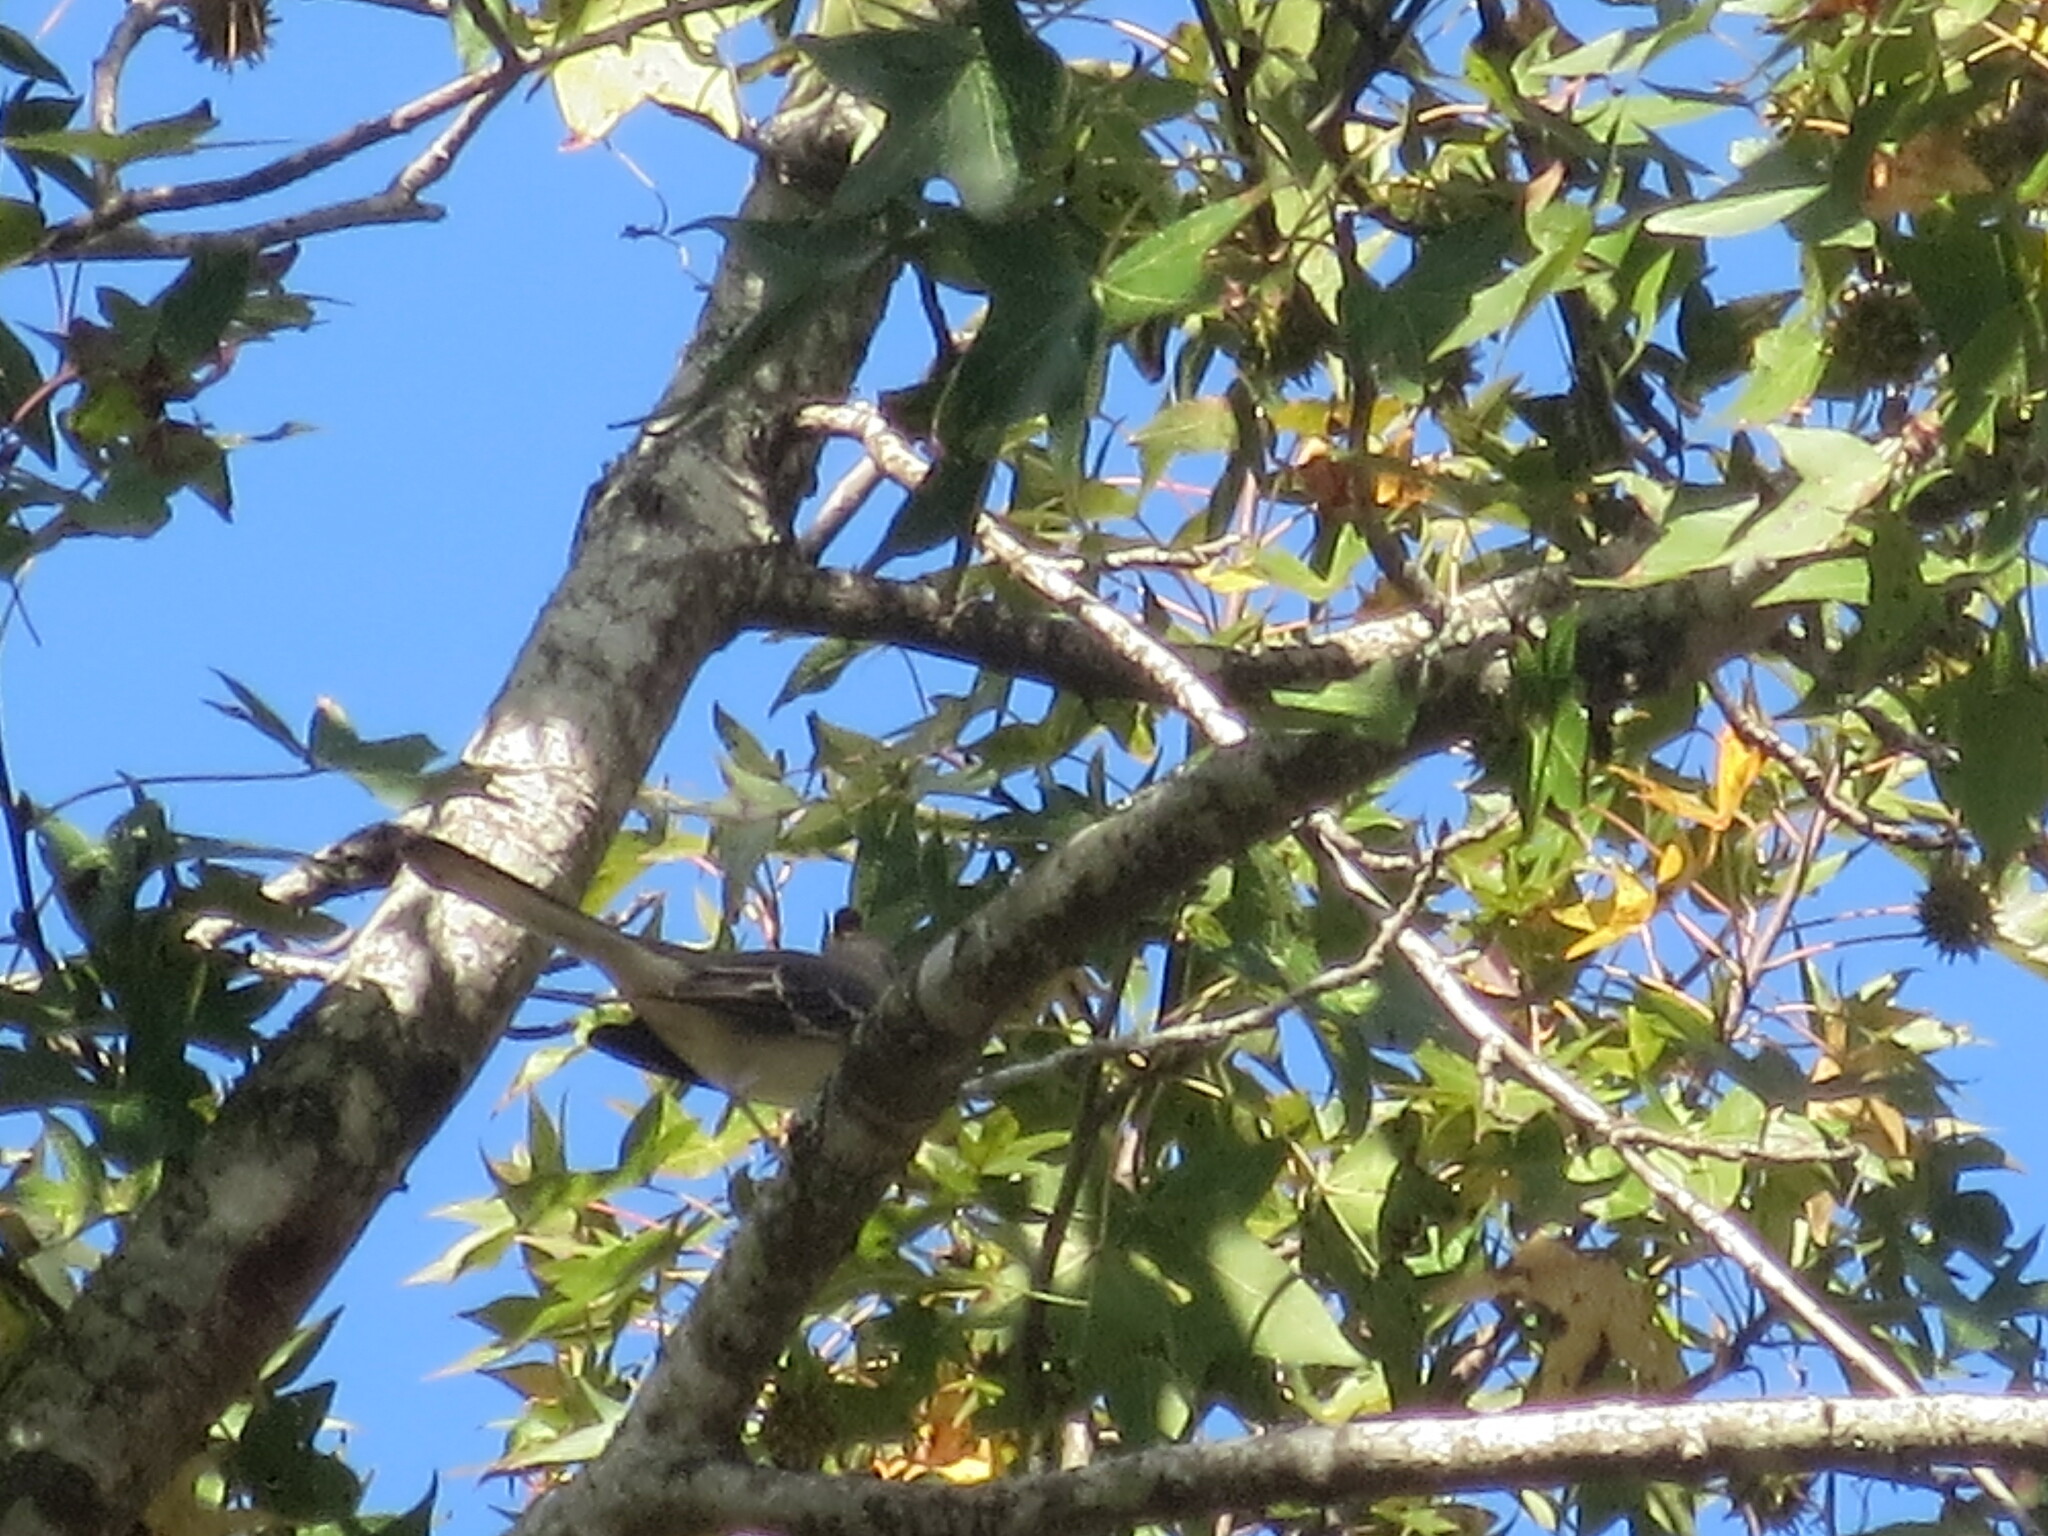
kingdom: Animalia
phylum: Chordata
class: Aves
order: Passeriformes
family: Mimidae
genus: Mimus
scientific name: Mimus polyglottos
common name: Northern mockingbird
